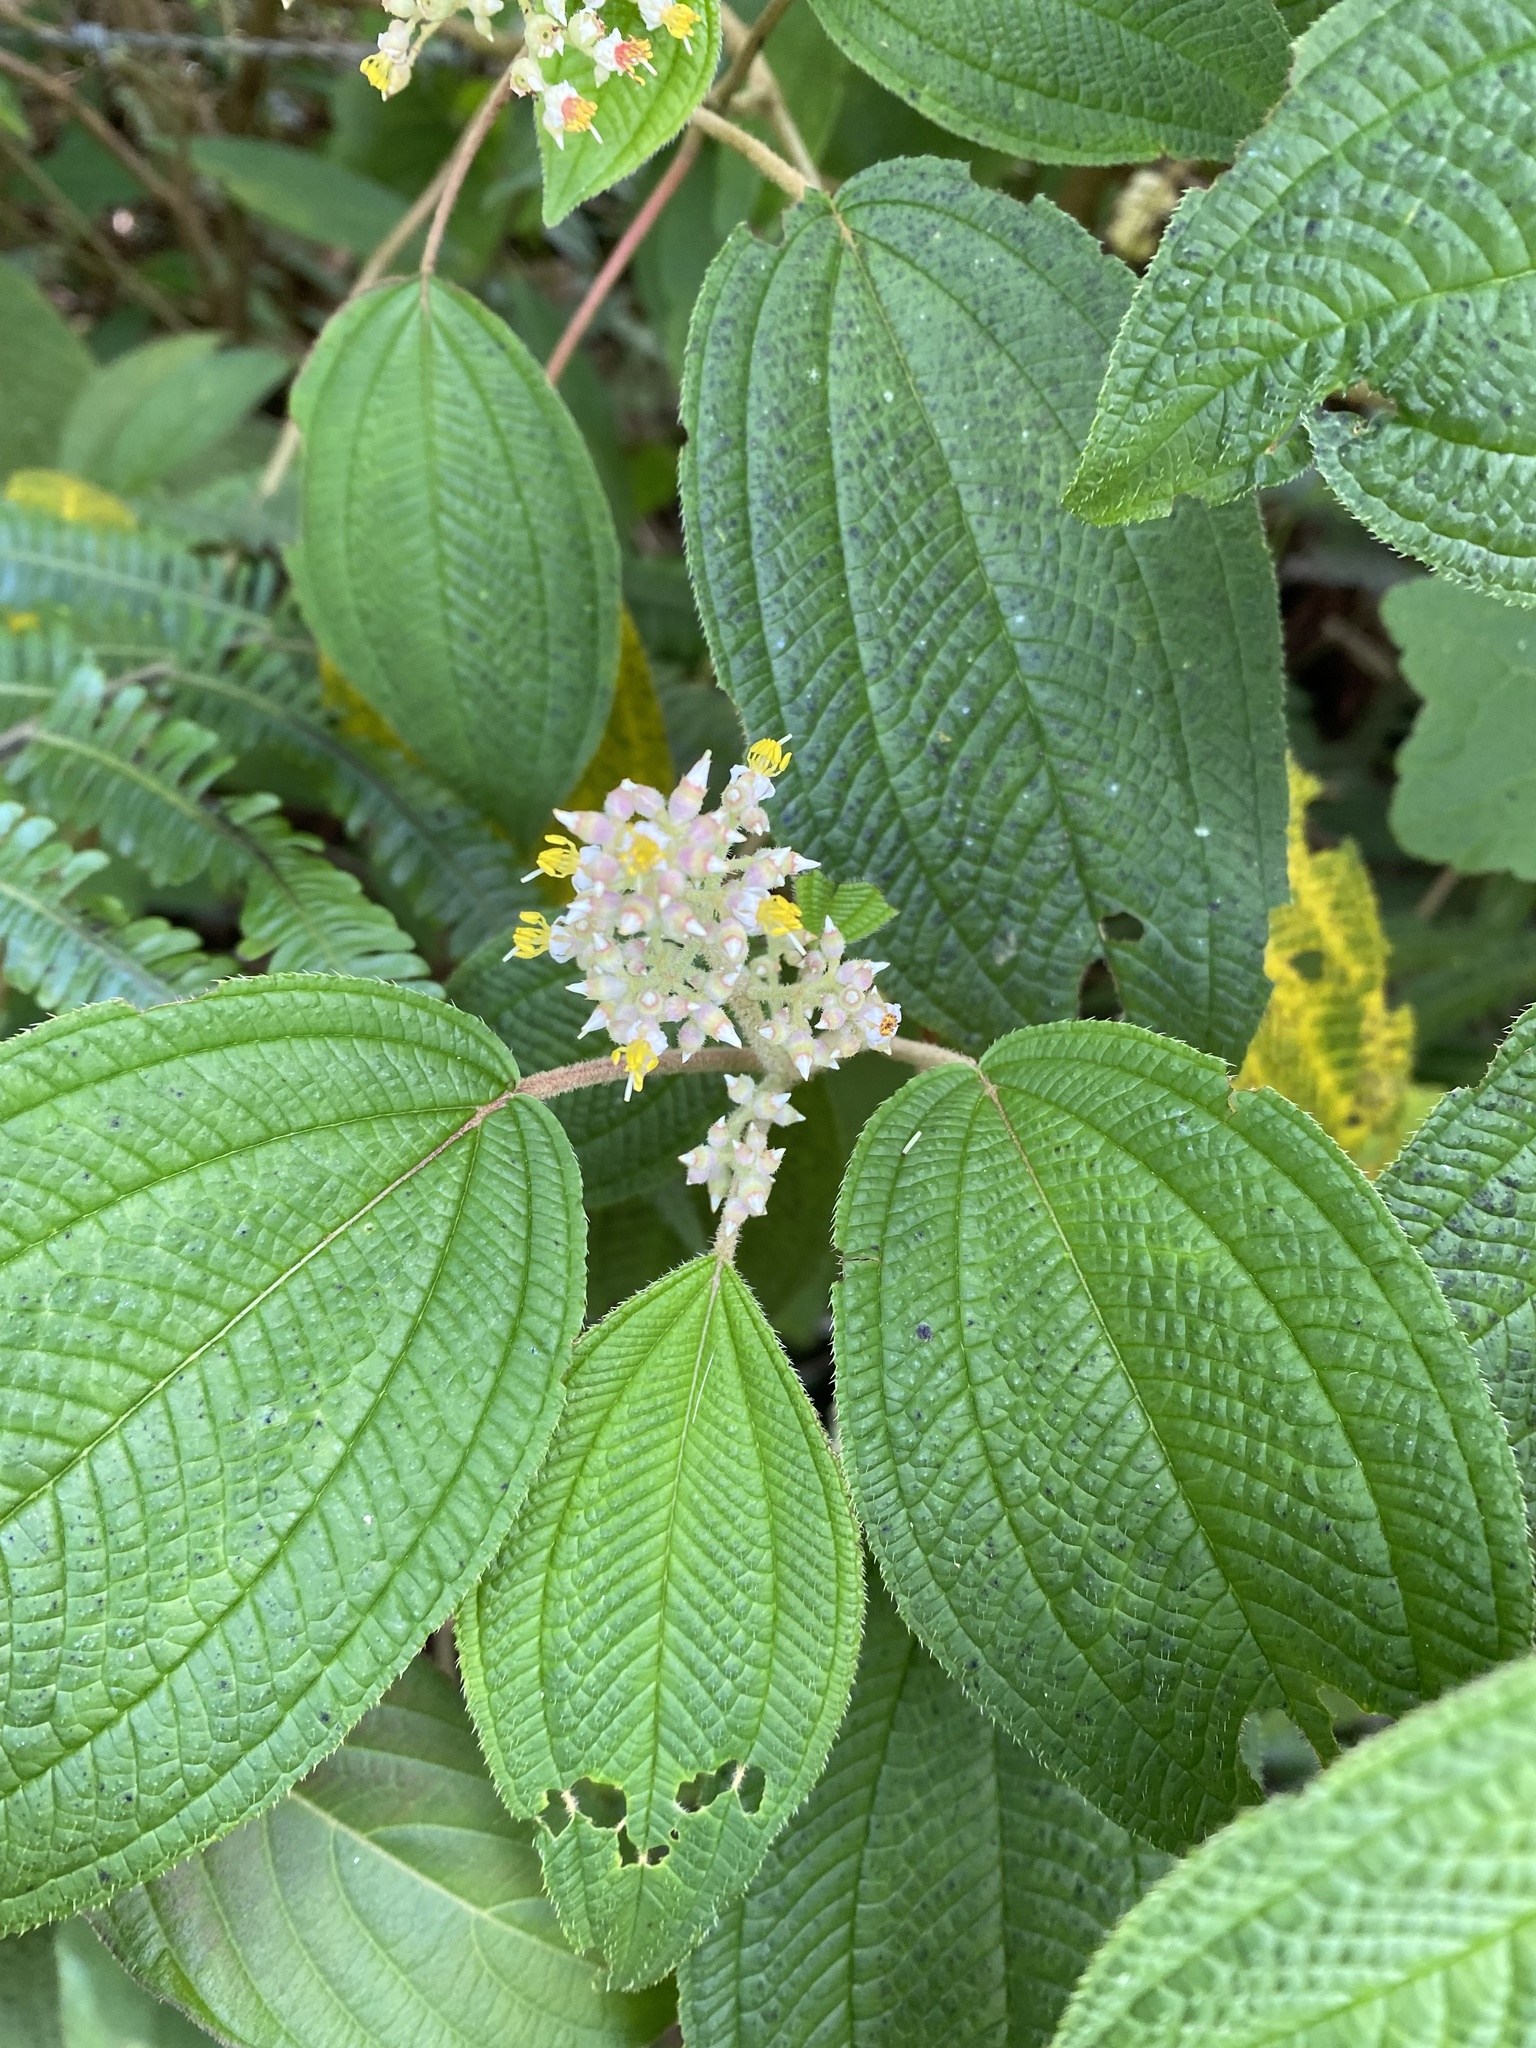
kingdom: Plantae
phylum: Tracheophyta
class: Magnoliopsida
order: Myrtales
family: Melastomataceae
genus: Miconia
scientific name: Miconia subseriata
